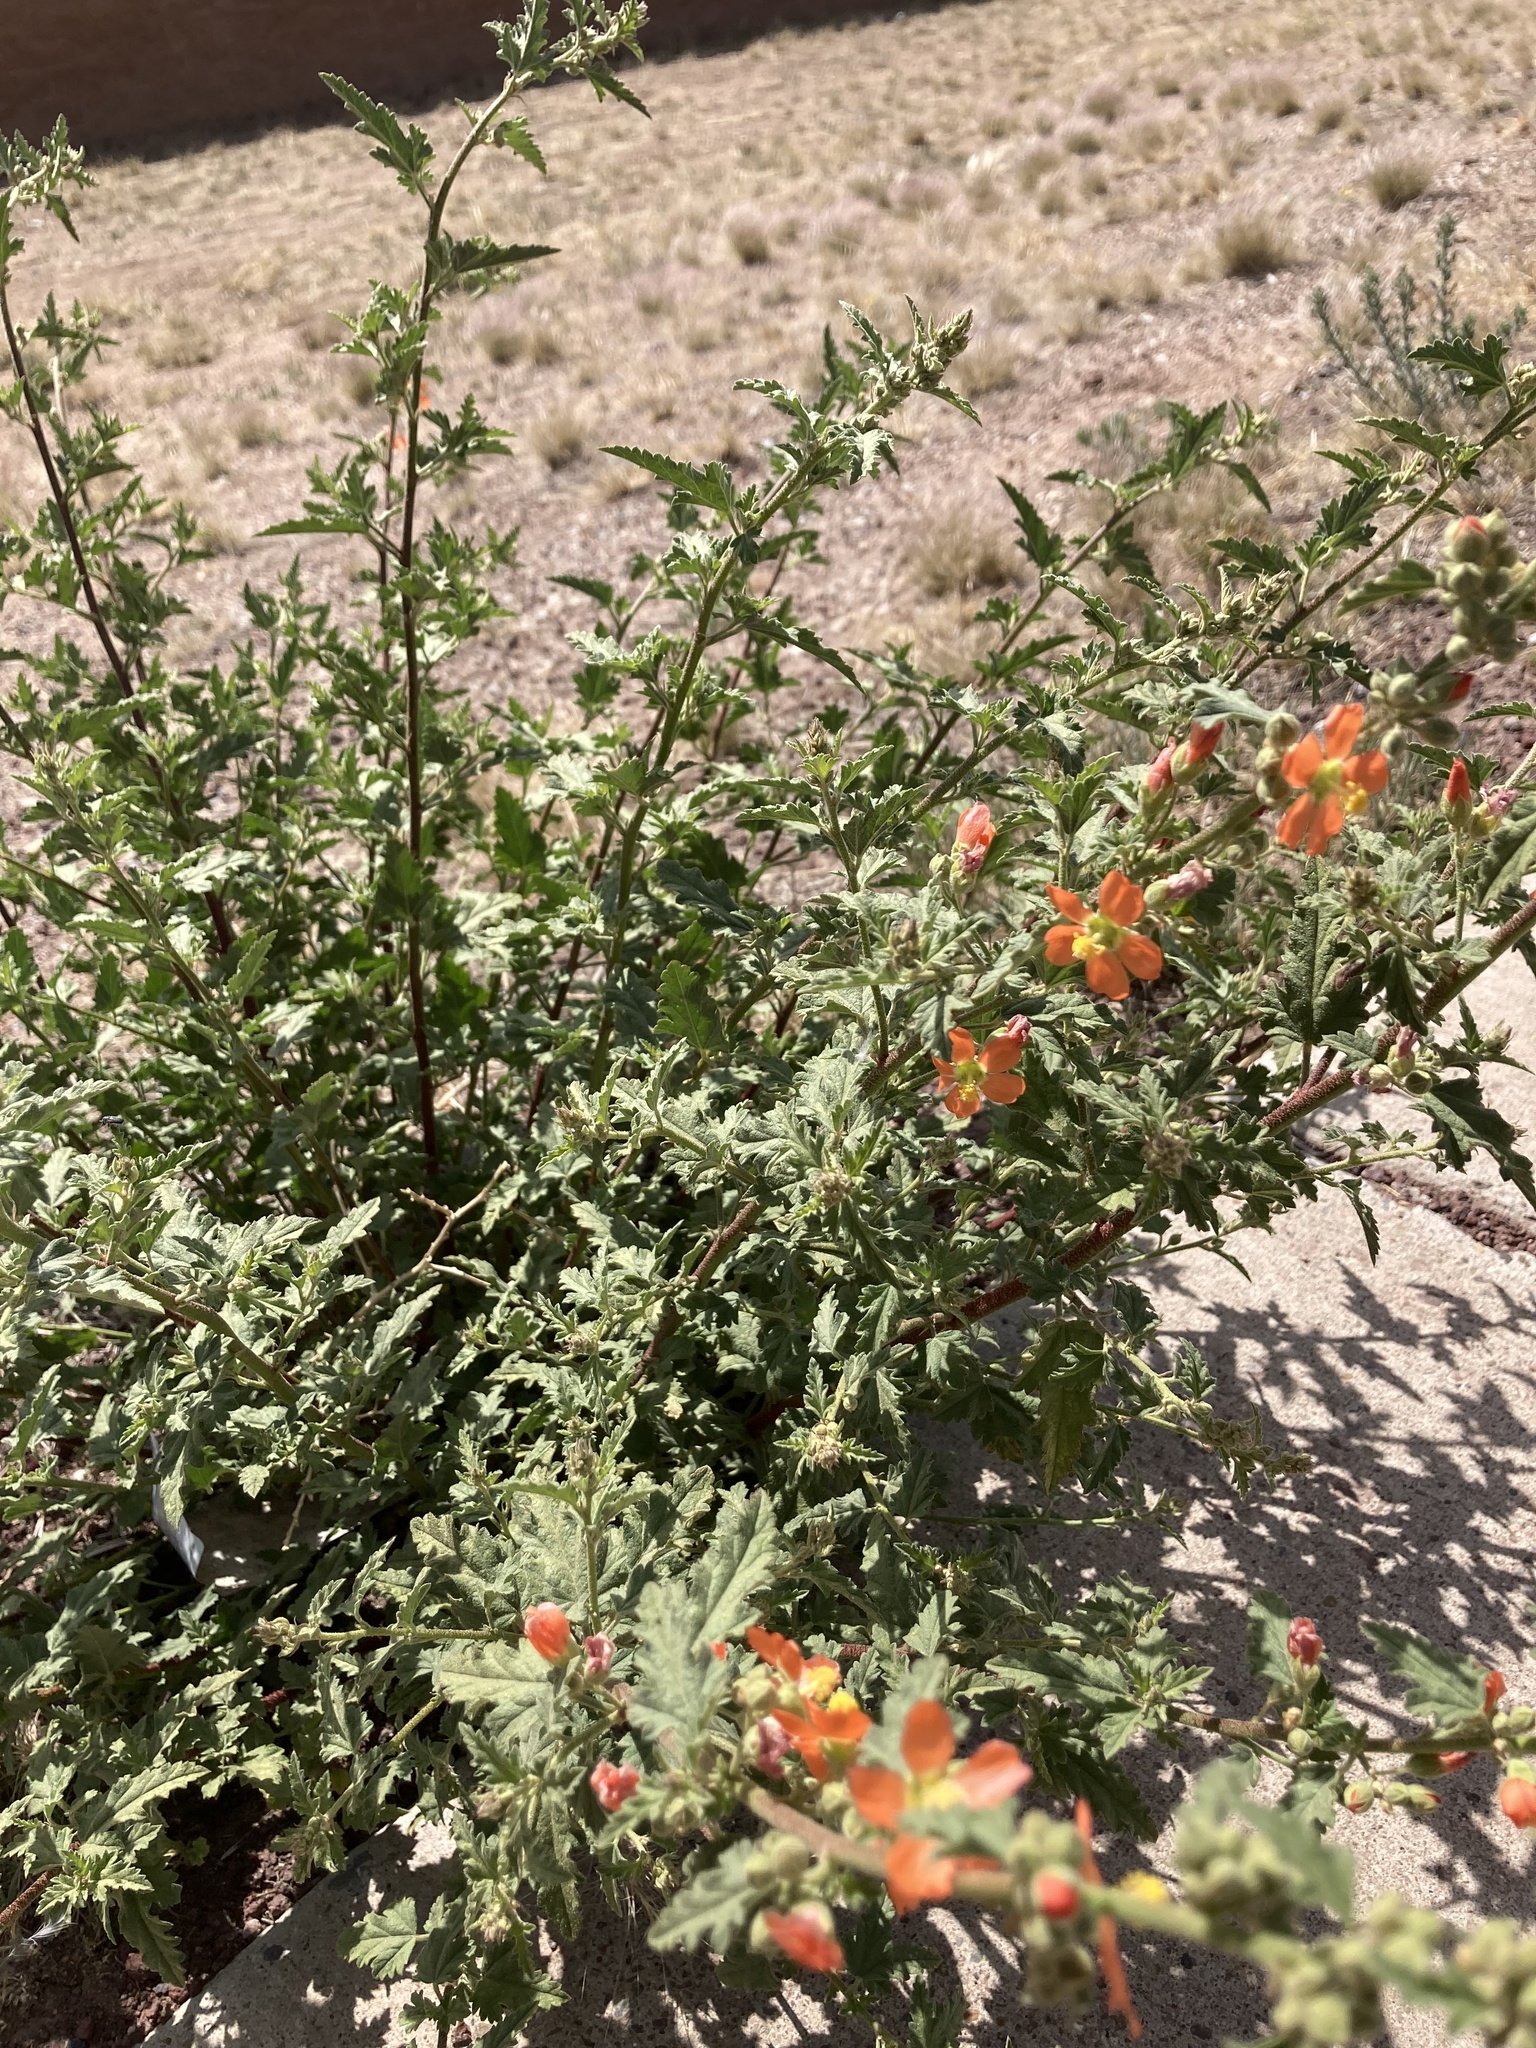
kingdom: Plantae
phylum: Tracheophyta
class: Magnoliopsida
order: Malvales
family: Malvaceae
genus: Sphaeralcea
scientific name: Sphaeralcea fendleri
